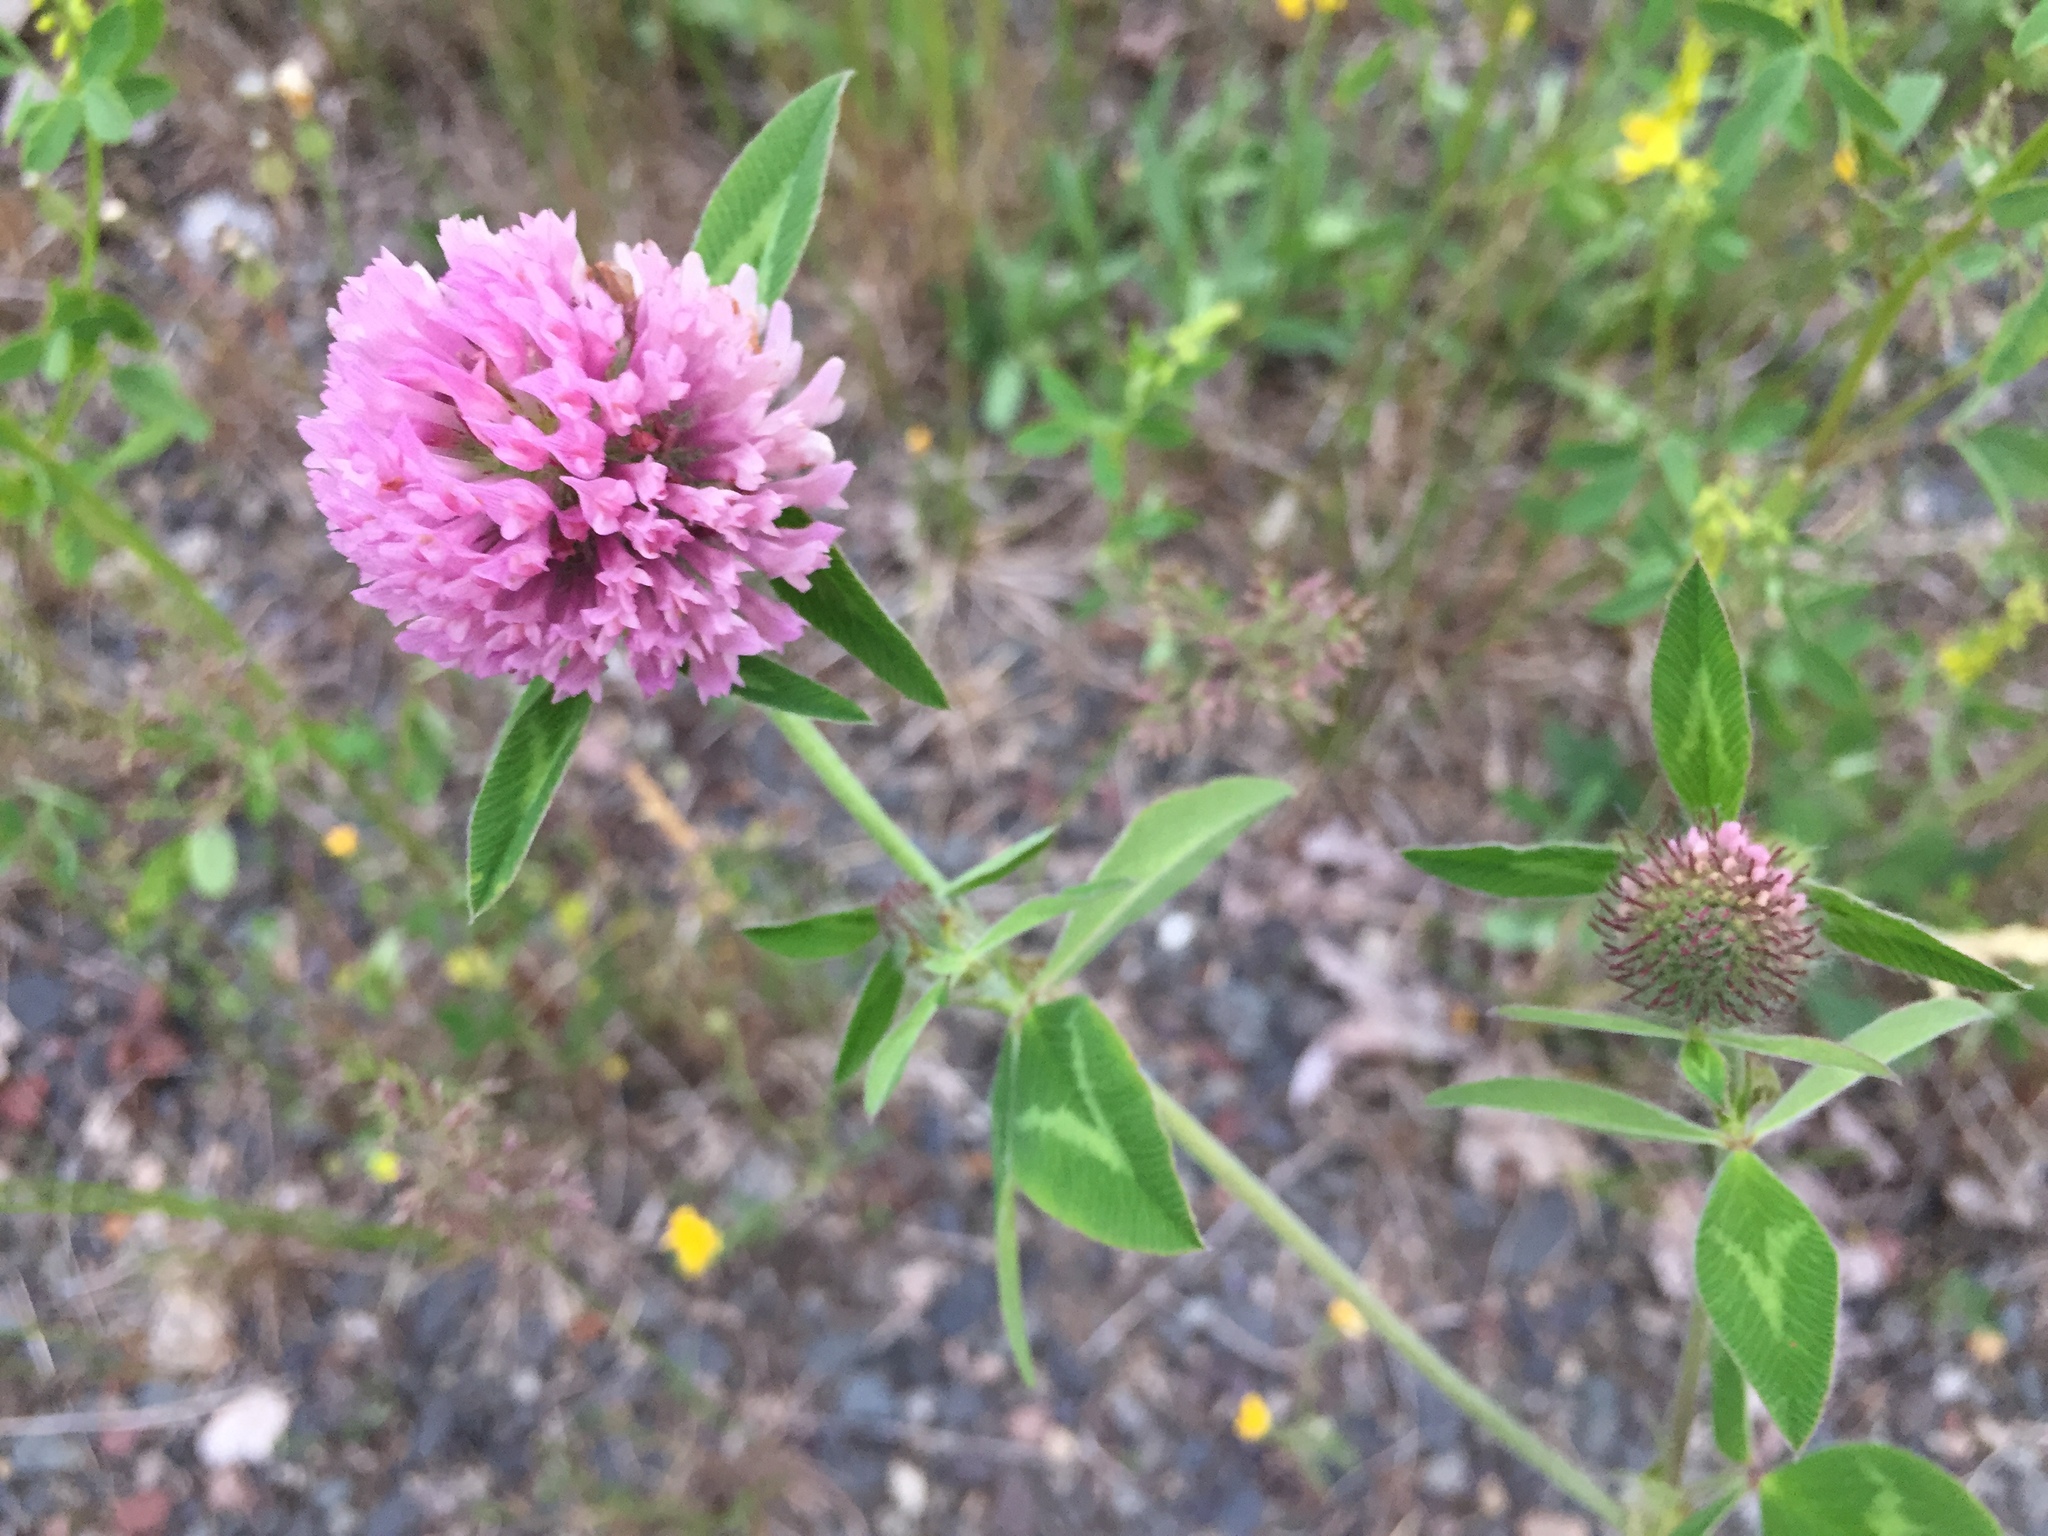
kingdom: Plantae
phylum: Tracheophyta
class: Magnoliopsida
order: Fabales
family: Fabaceae
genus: Trifolium
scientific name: Trifolium pratense
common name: Red clover
